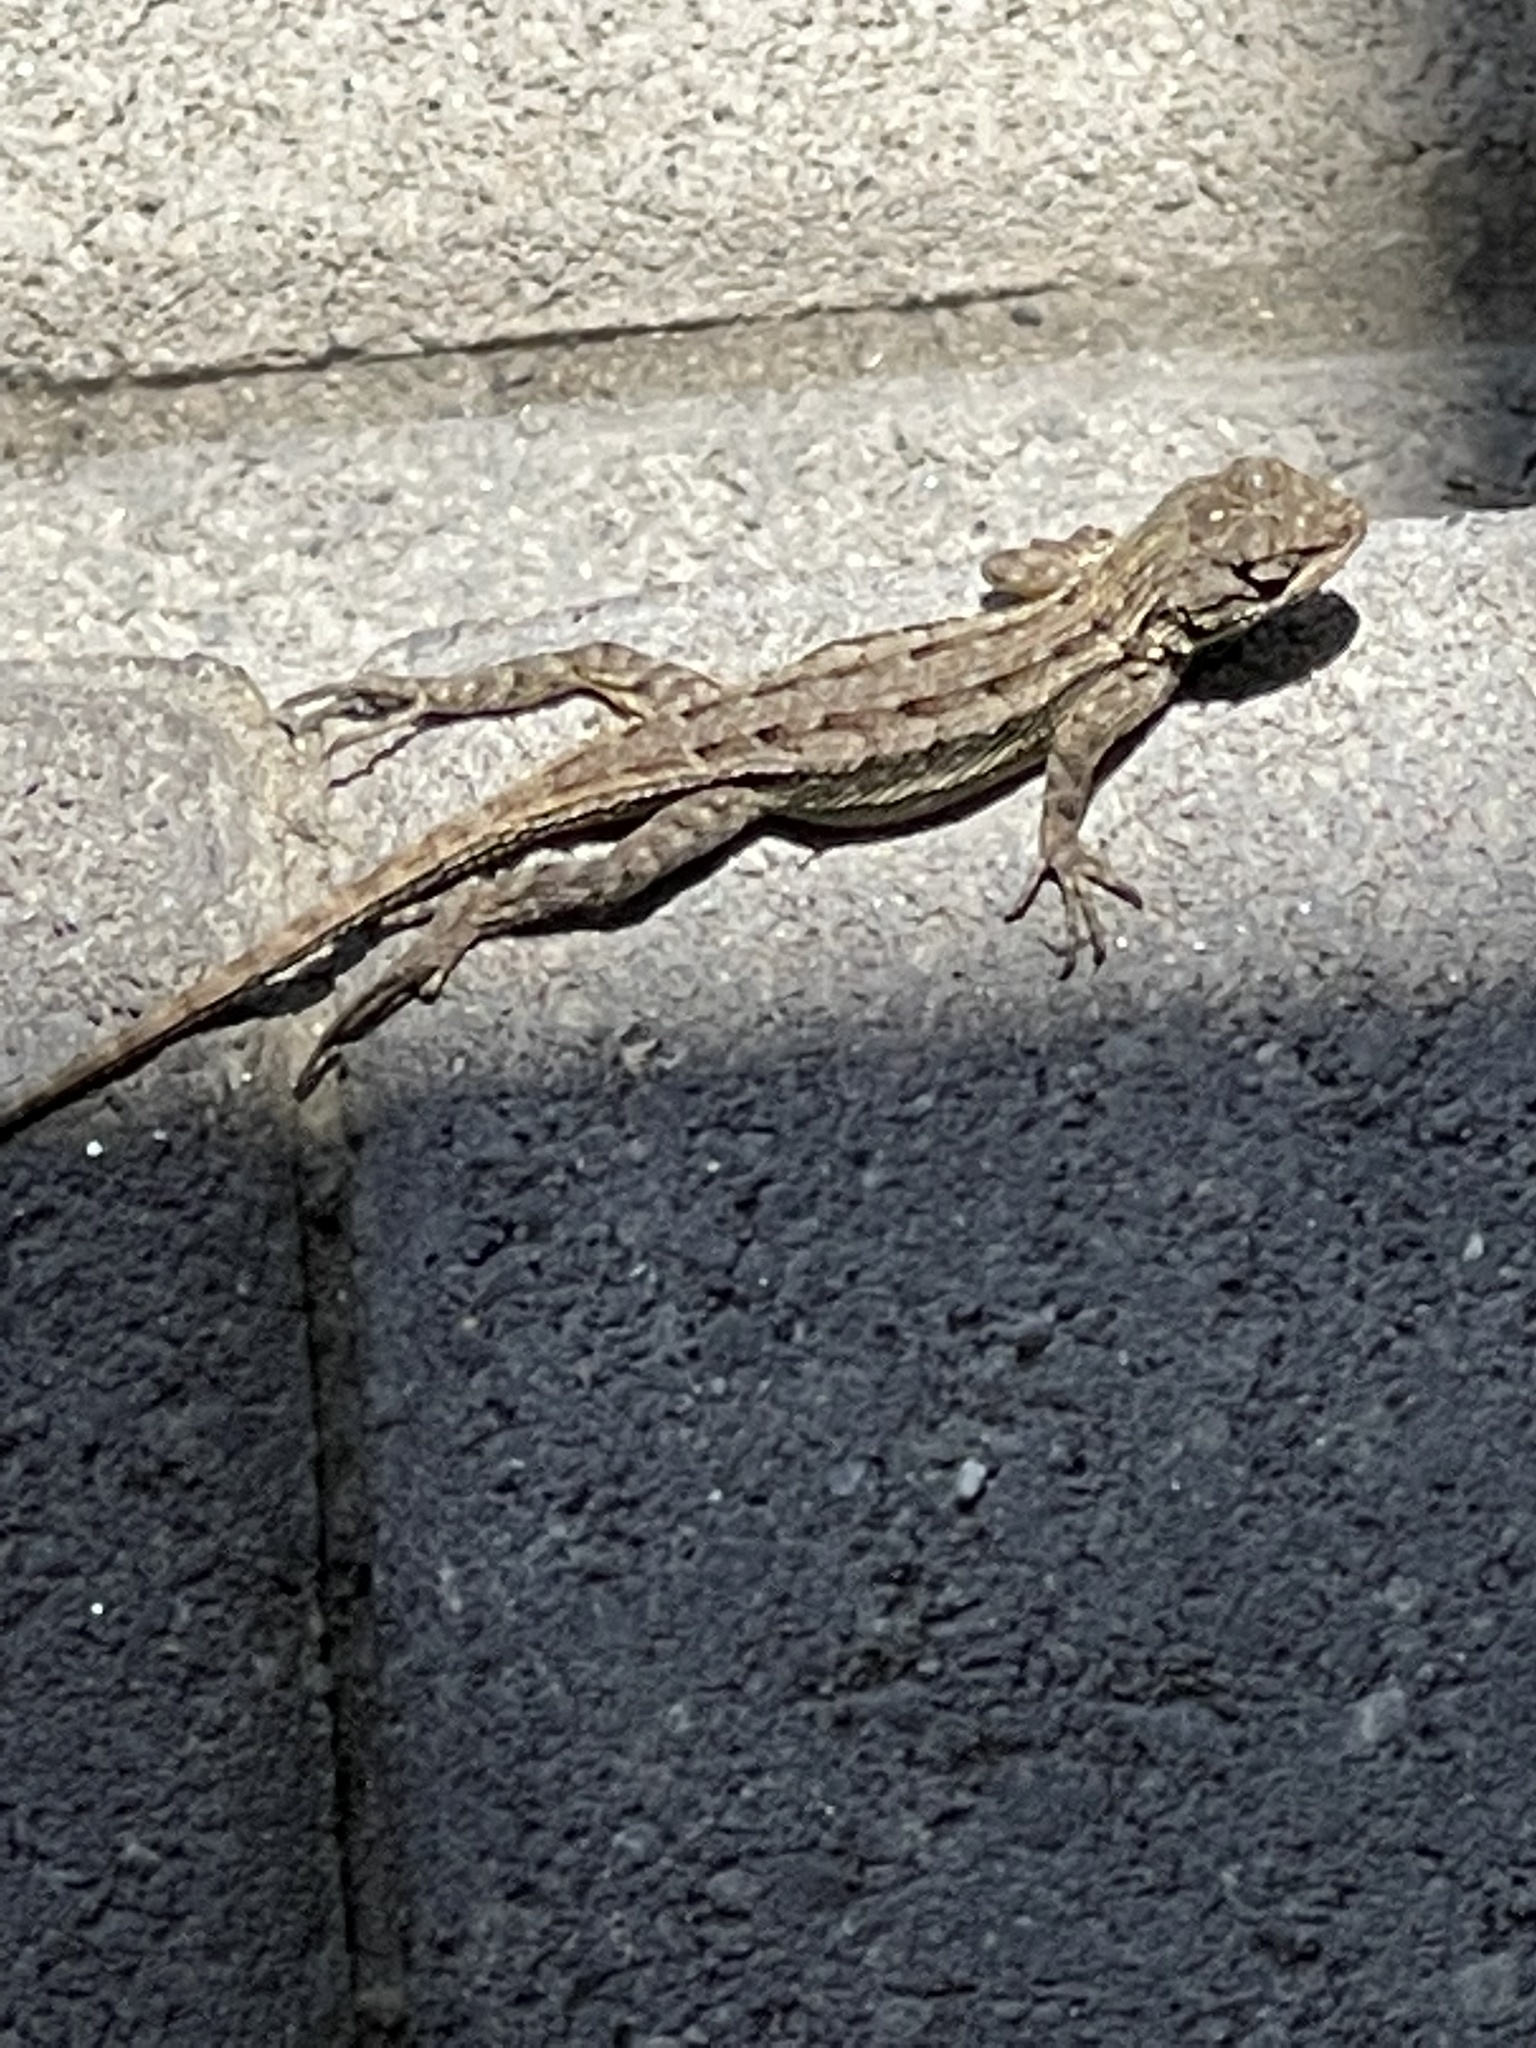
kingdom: Animalia
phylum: Chordata
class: Squamata
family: Phrynosomatidae
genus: Sceloporus
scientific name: Sceloporus occidentalis
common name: Western fence lizard
